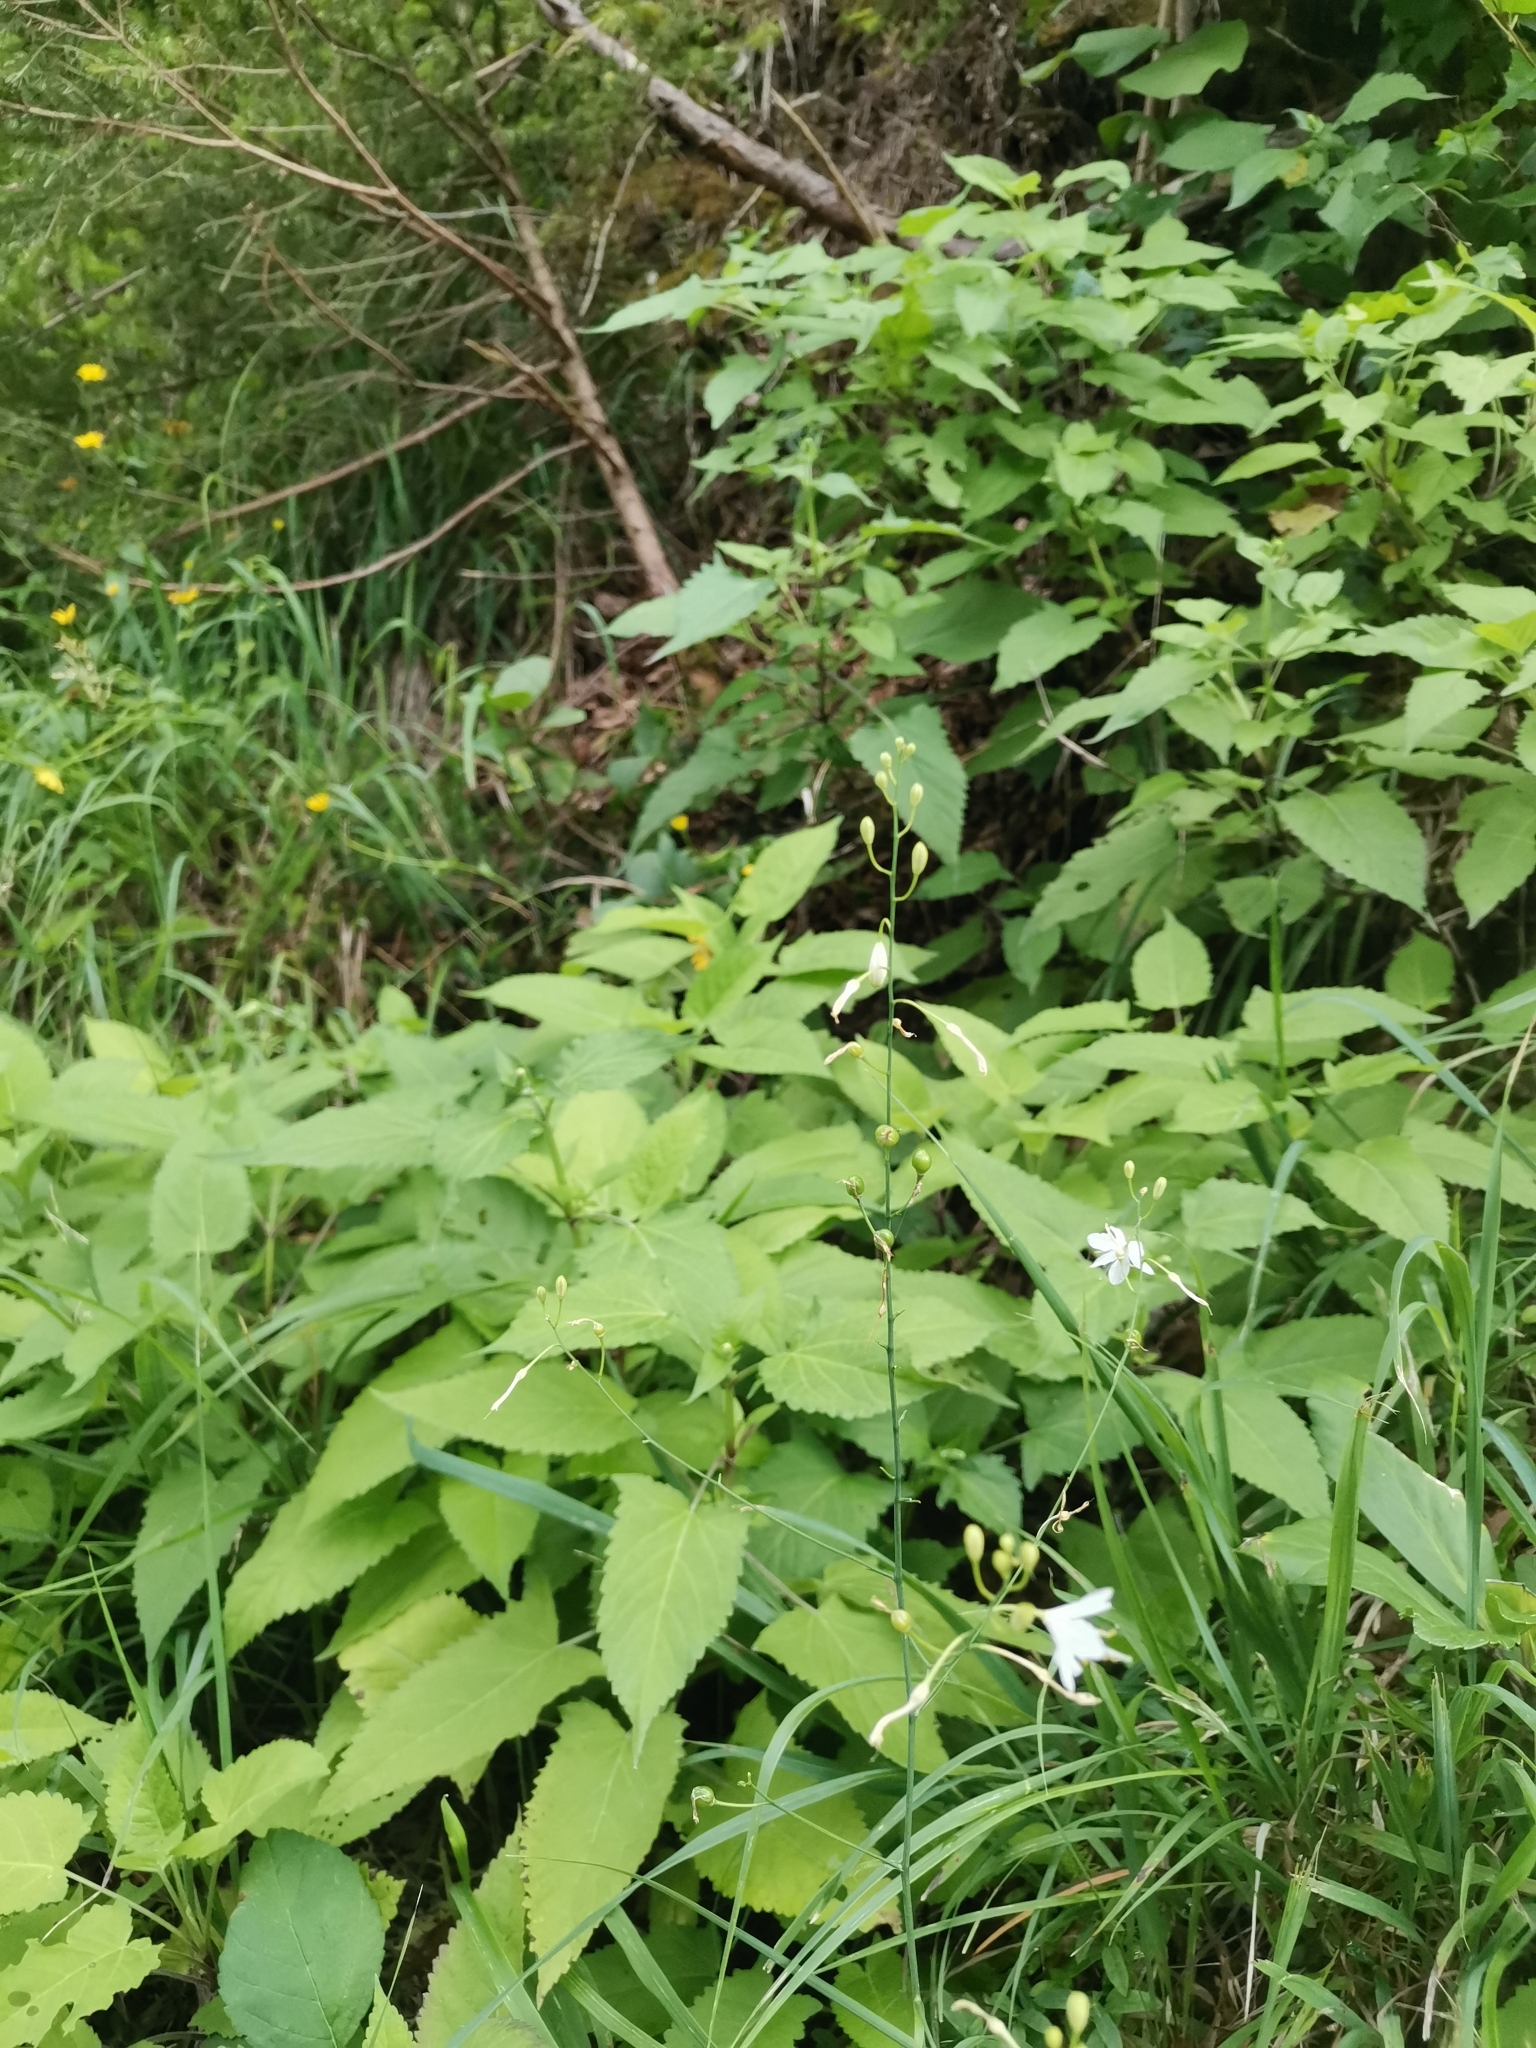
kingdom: Plantae
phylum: Tracheophyta
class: Liliopsida
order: Asparagales
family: Asparagaceae
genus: Anthericum
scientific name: Anthericum ramosum
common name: Branched st. bernard's-lily
